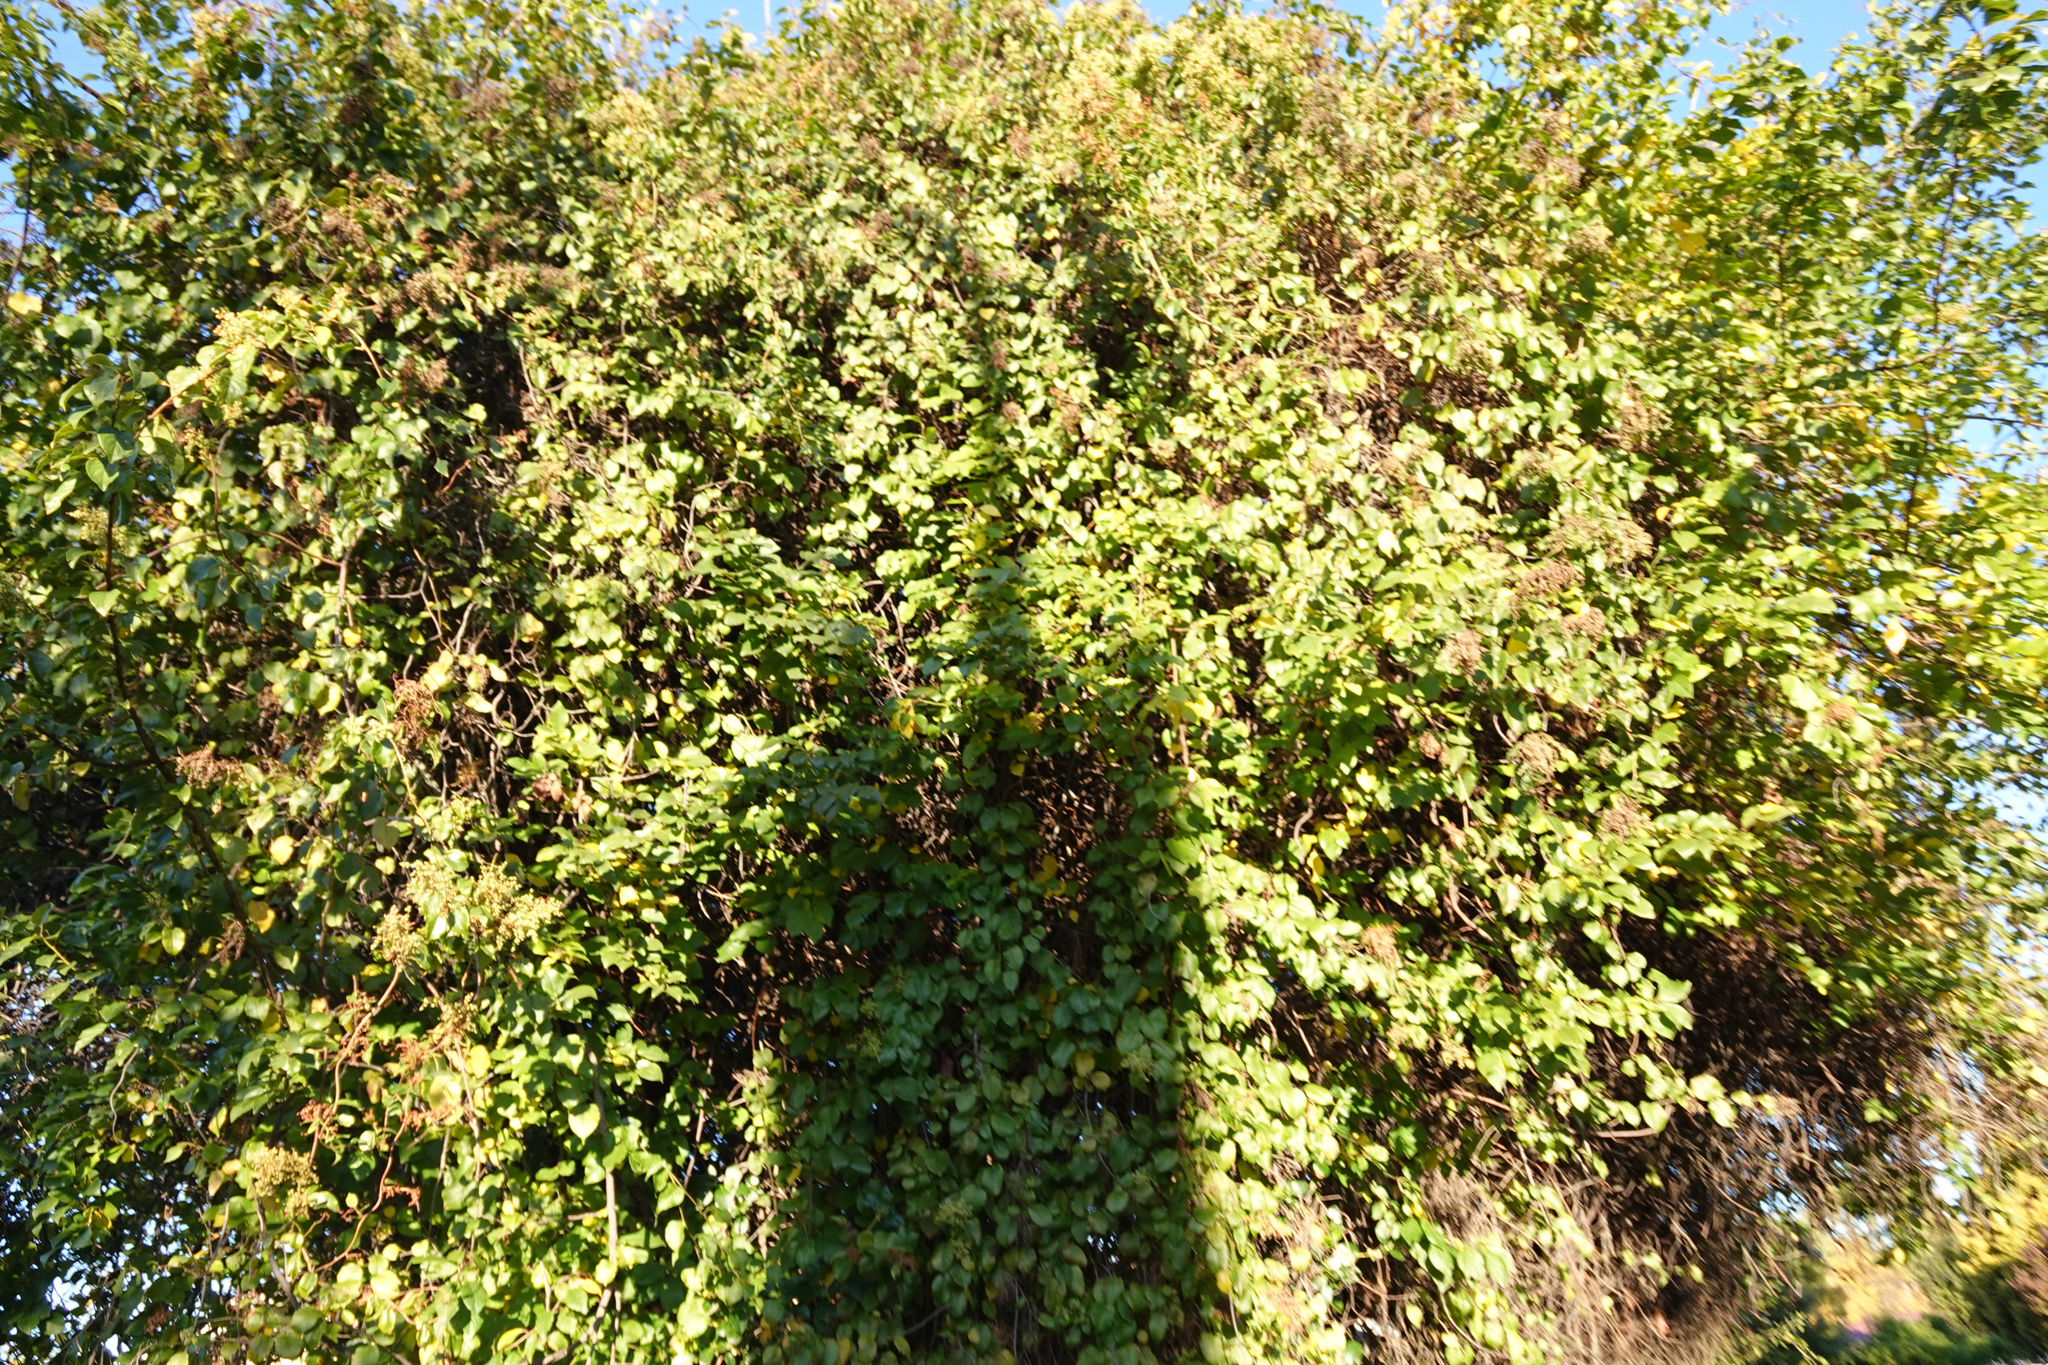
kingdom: Plantae
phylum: Tracheophyta
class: Magnoliopsida
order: Caryophyllales
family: Polygonaceae
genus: Muehlenbeckia
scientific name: Muehlenbeckia australis
